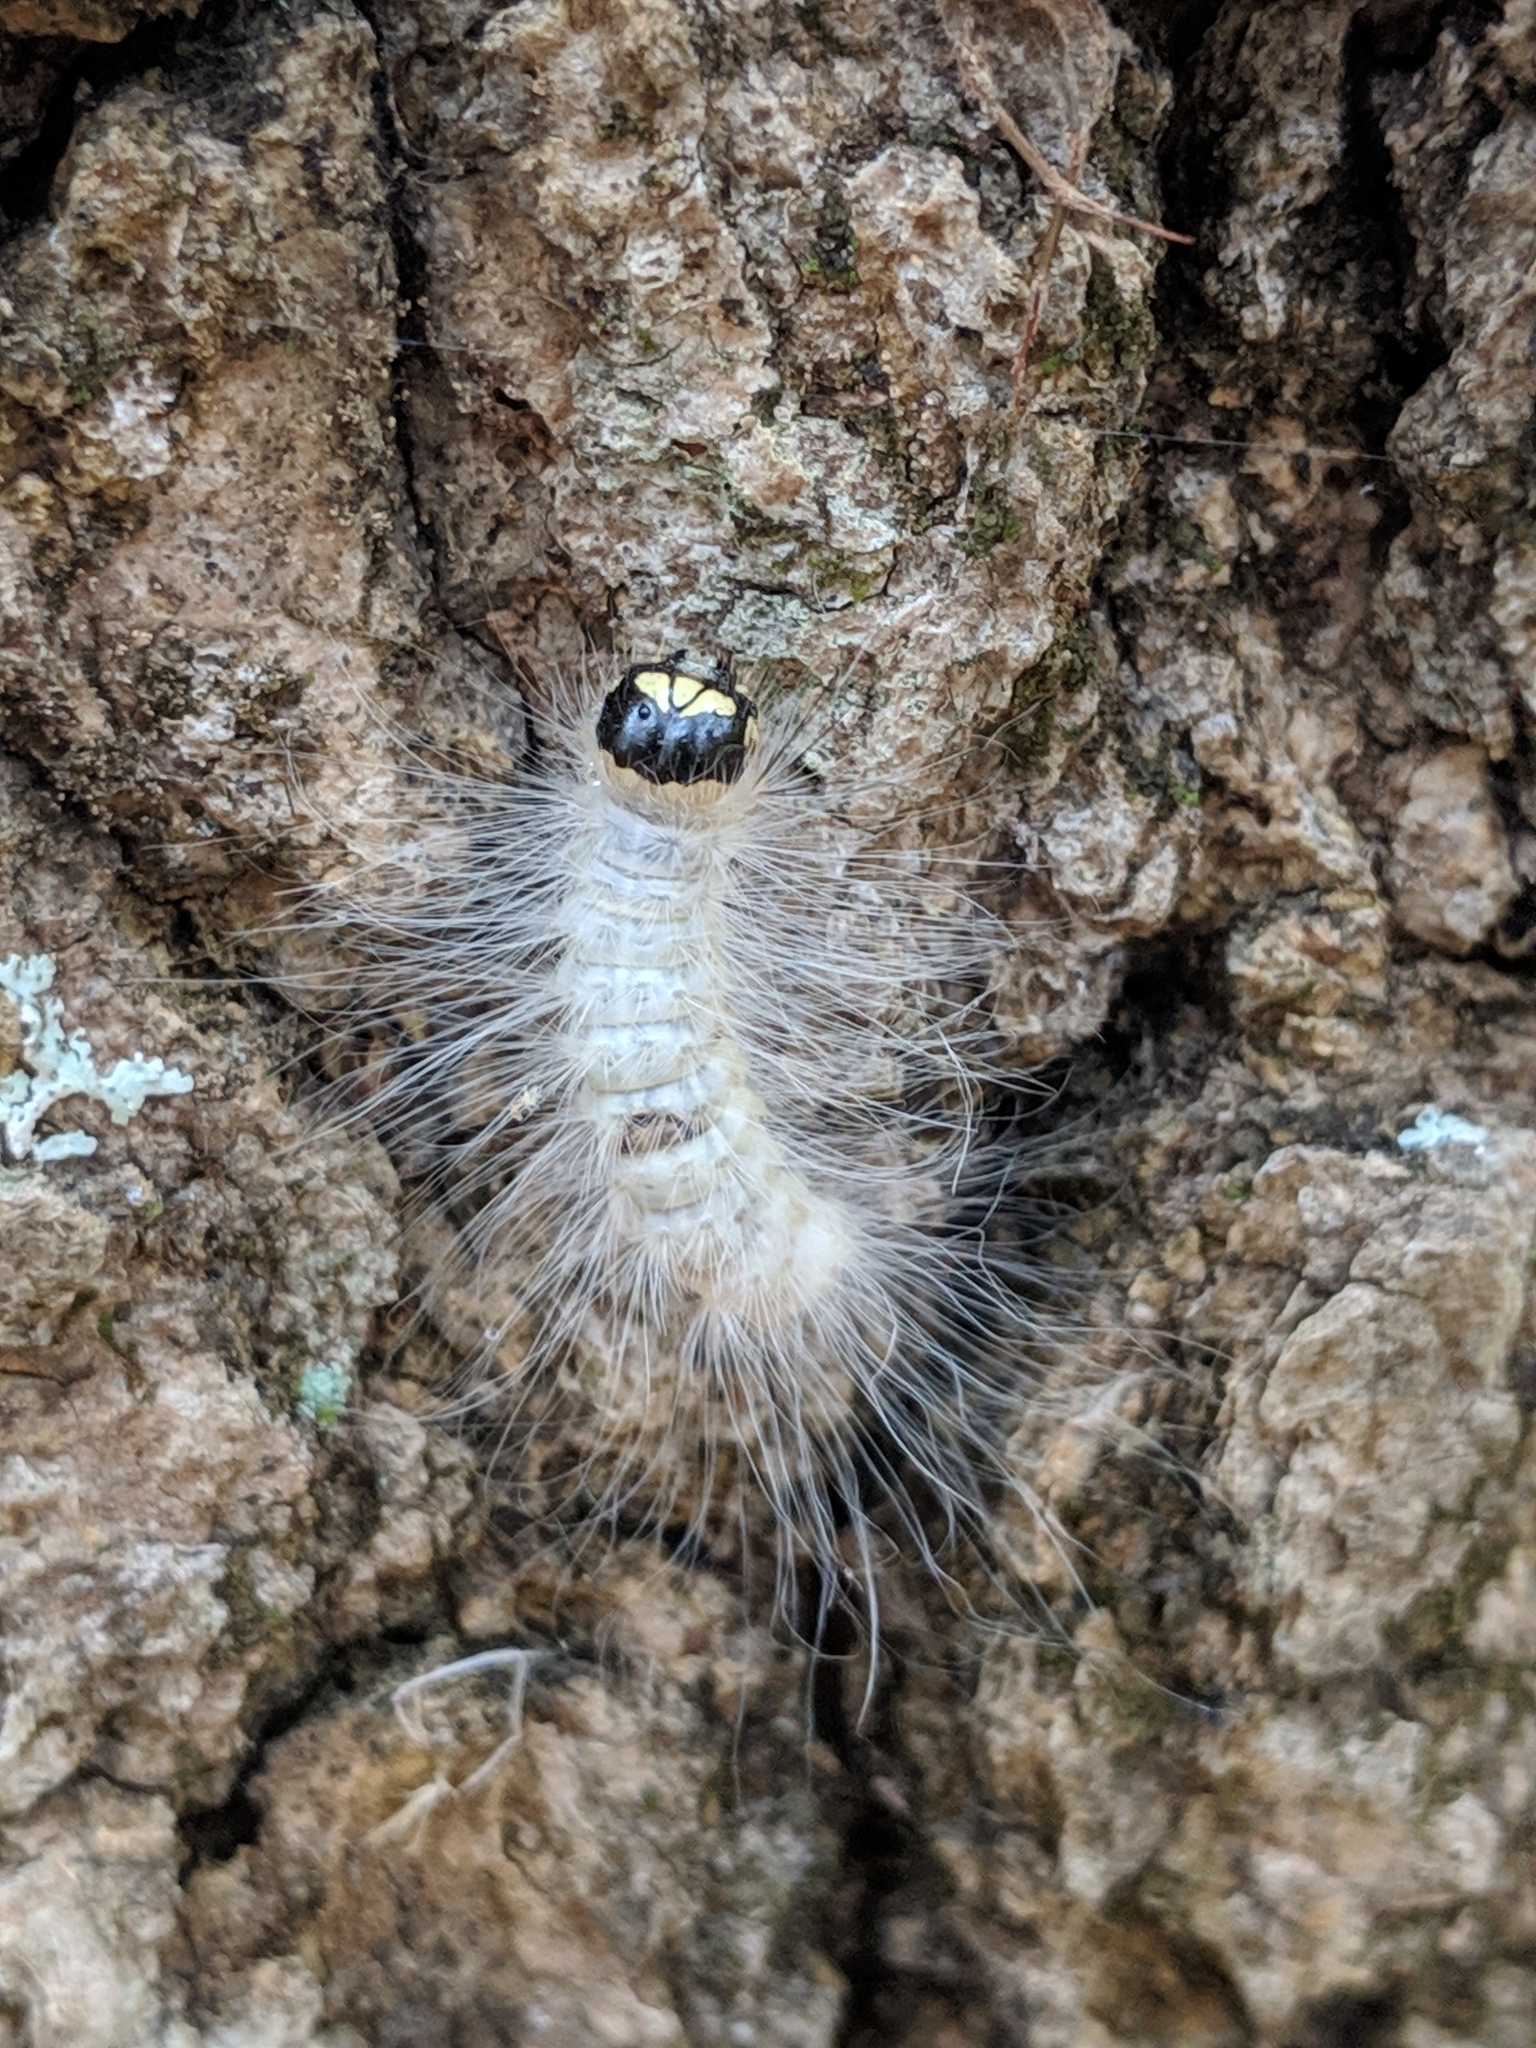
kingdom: Animalia
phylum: Arthropoda
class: Insecta
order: Lepidoptera
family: Noctuidae
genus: Charadra
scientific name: Charadra deridens
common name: Marbled tuffet
